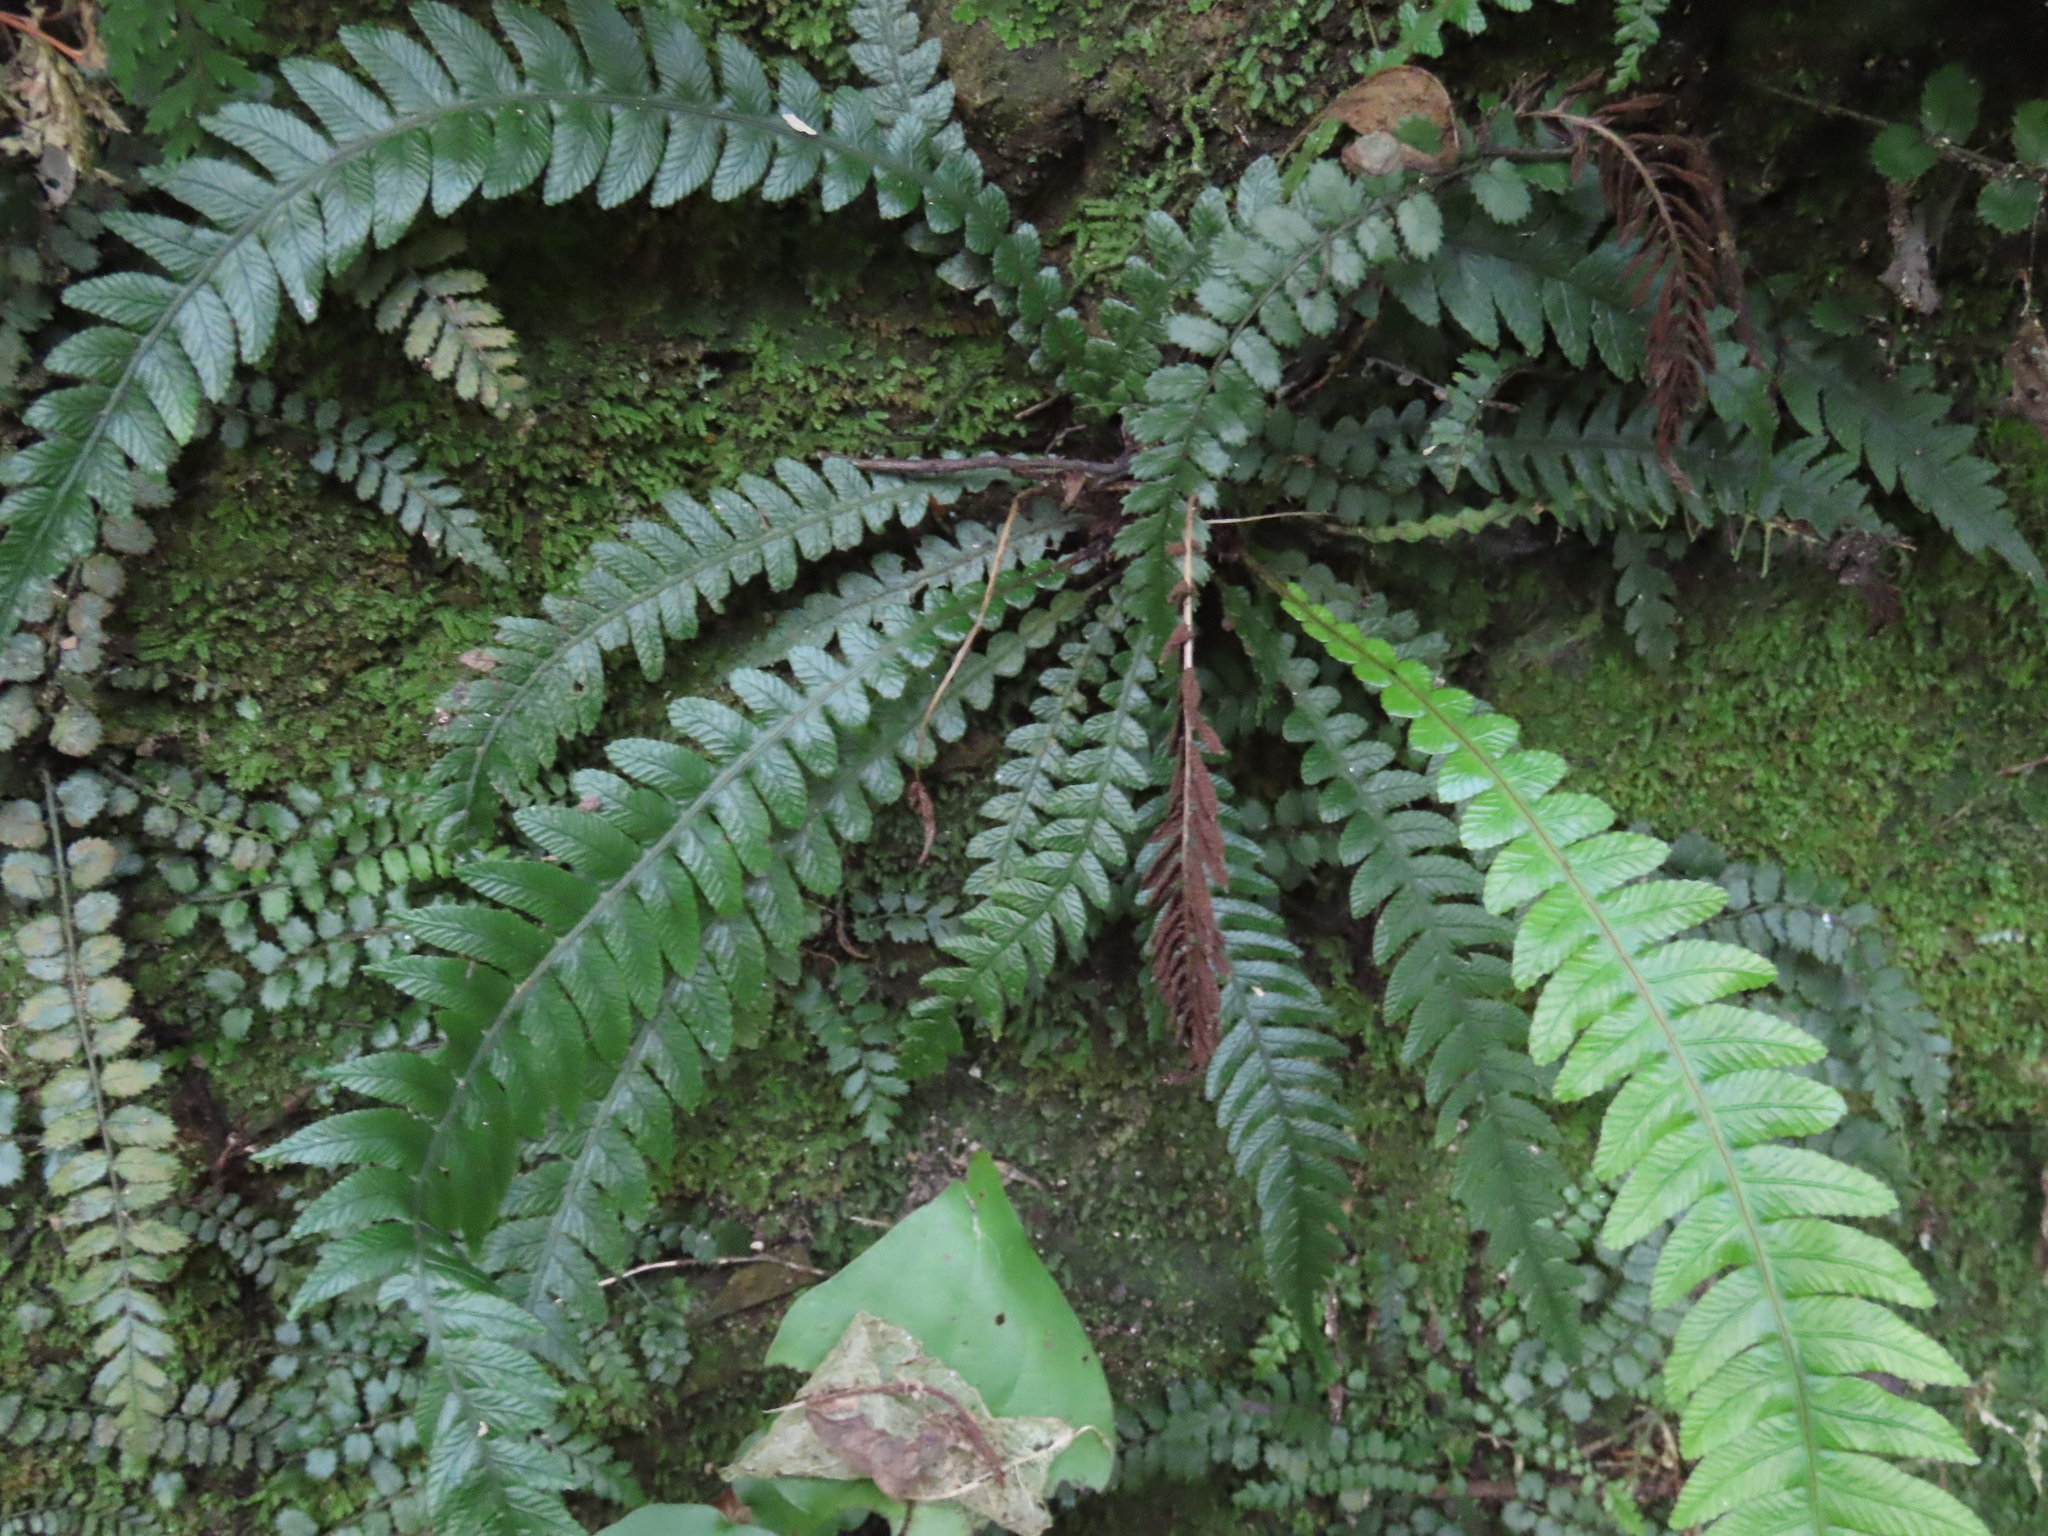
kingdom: Plantae
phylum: Tracheophyta
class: Polypodiopsida
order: Polypodiales
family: Blechnaceae
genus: Austroblechnum
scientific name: Austroblechnum lanceolatum
